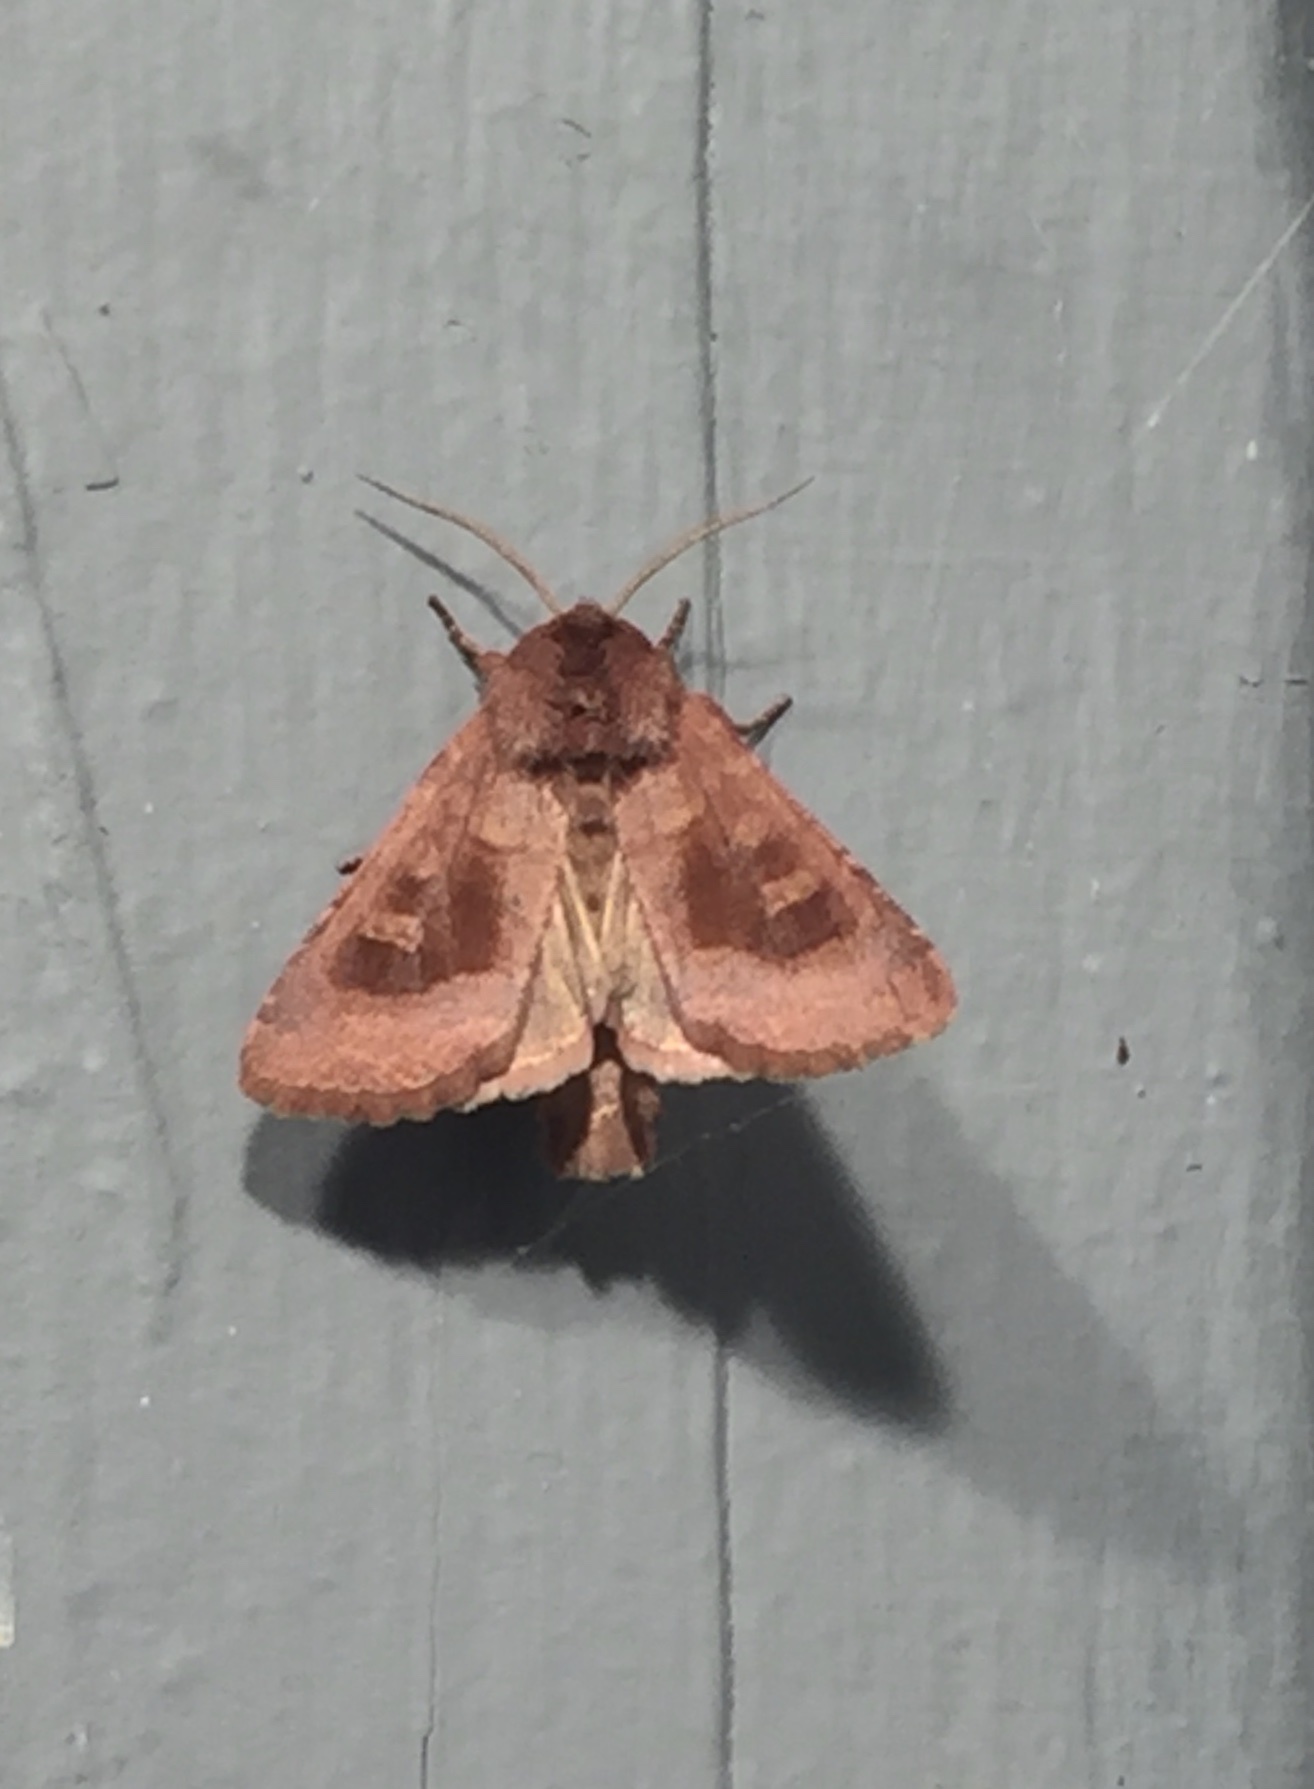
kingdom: Animalia
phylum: Arthropoda
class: Insecta
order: Lepidoptera
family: Noctuidae
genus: Nephelodes
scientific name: Nephelodes minians
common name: Bronzed cutworm
